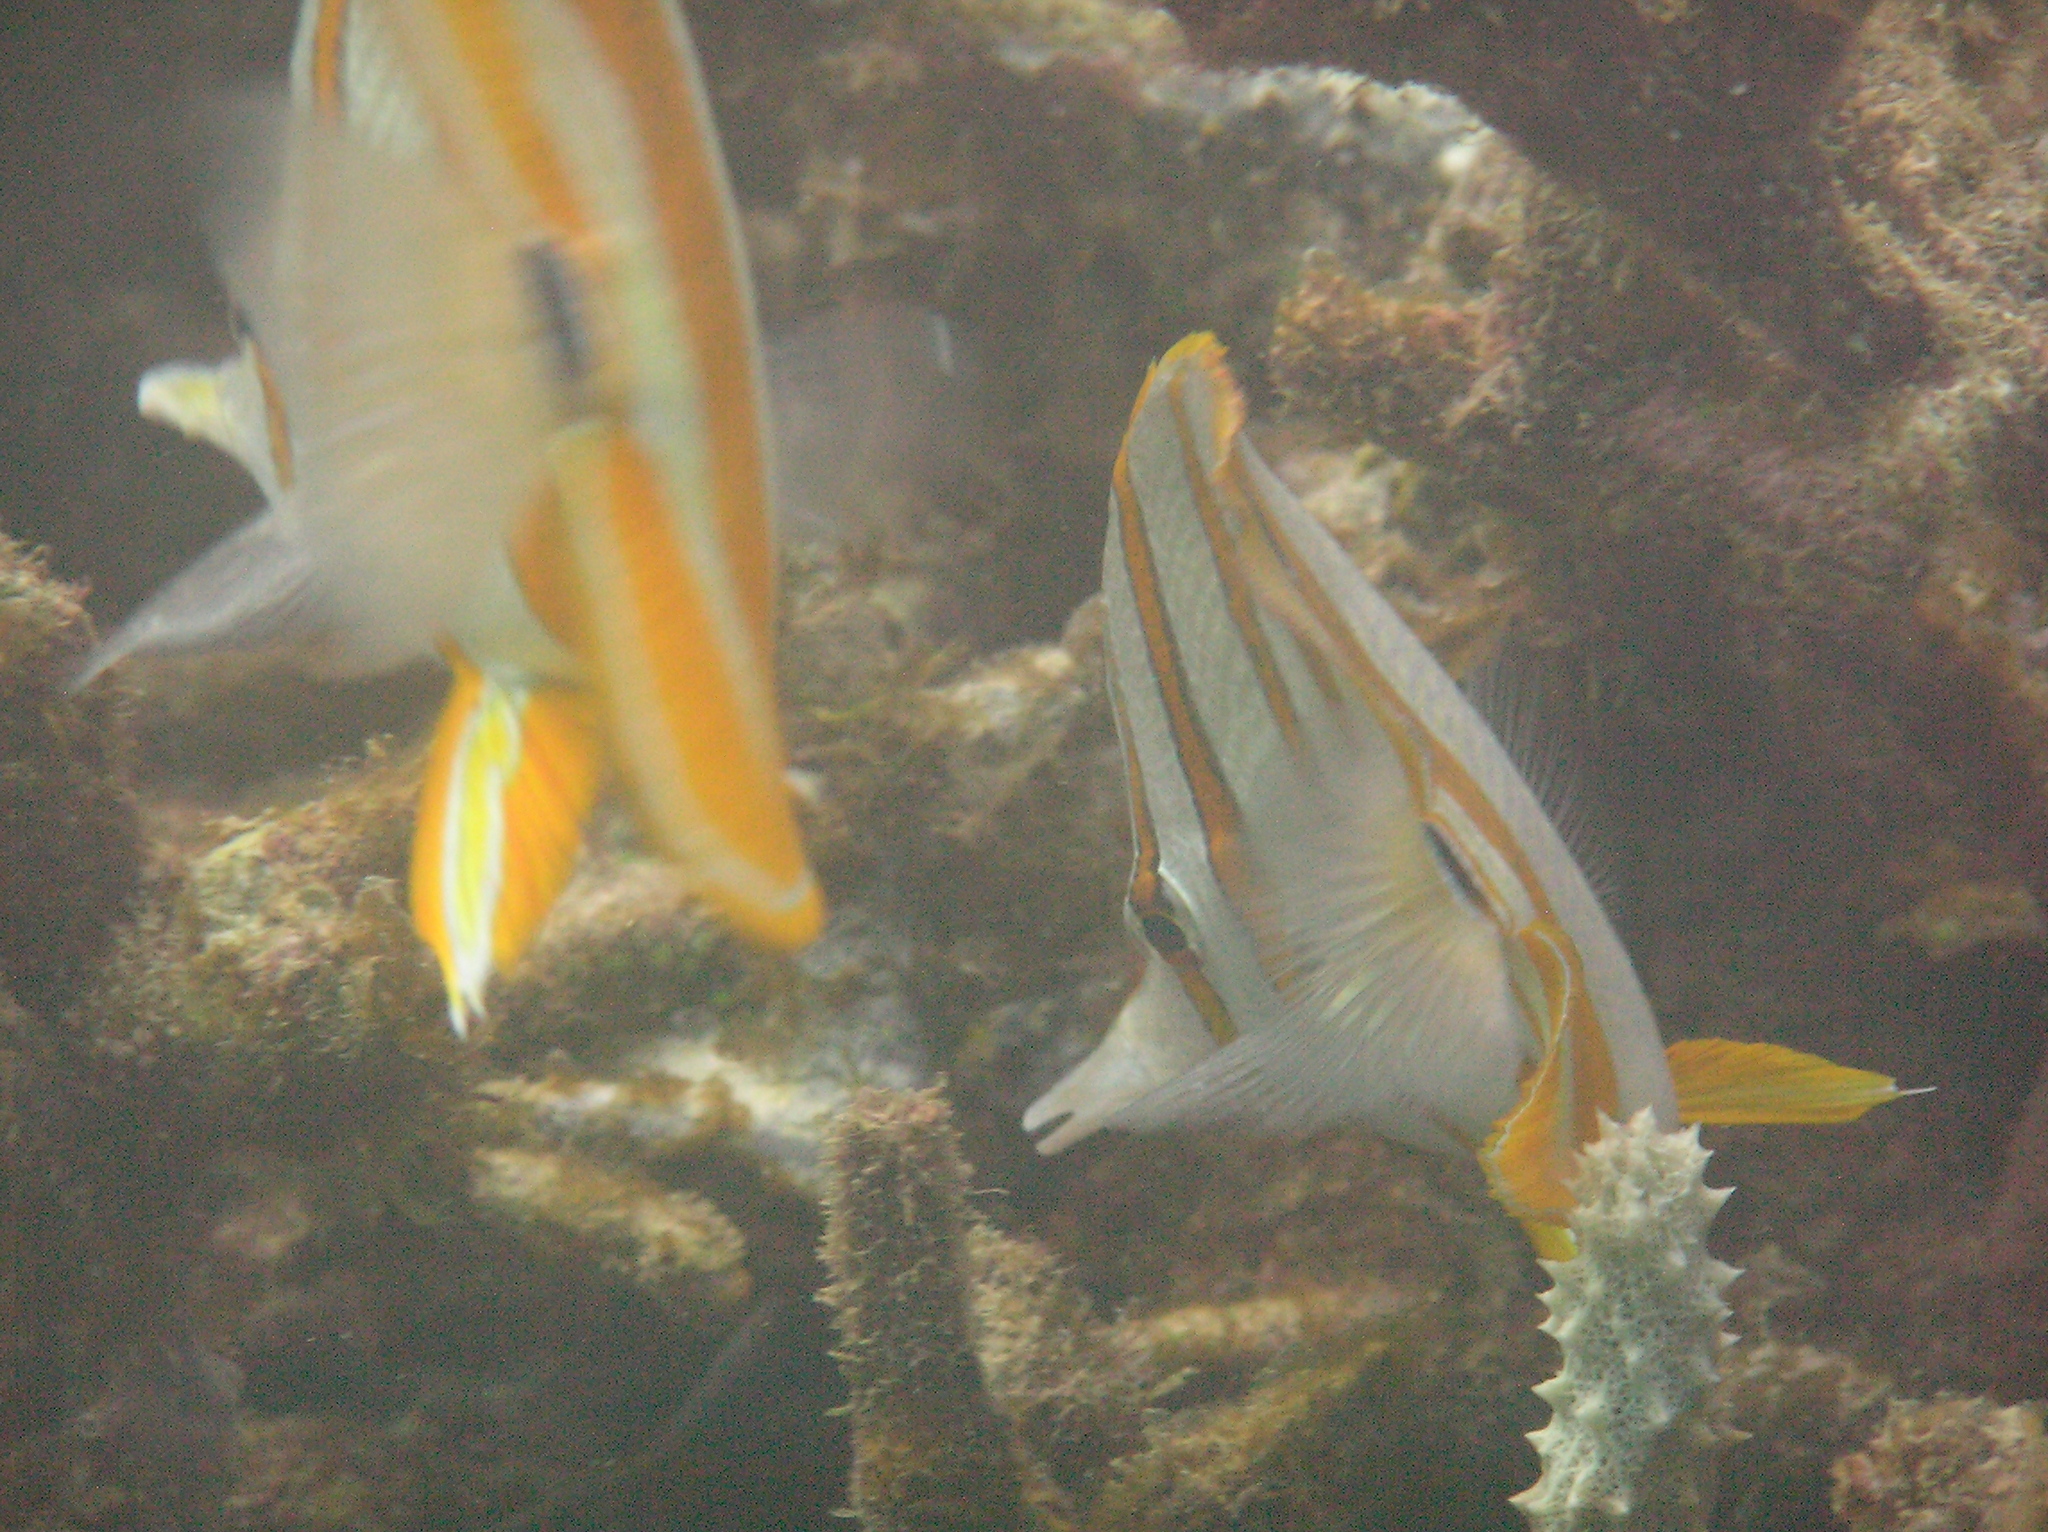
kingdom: Animalia
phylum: Chordata
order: Perciformes
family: Chaetodontidae
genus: Chelmon
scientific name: Chelmon rostratus
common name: Beaked butterflyfish
